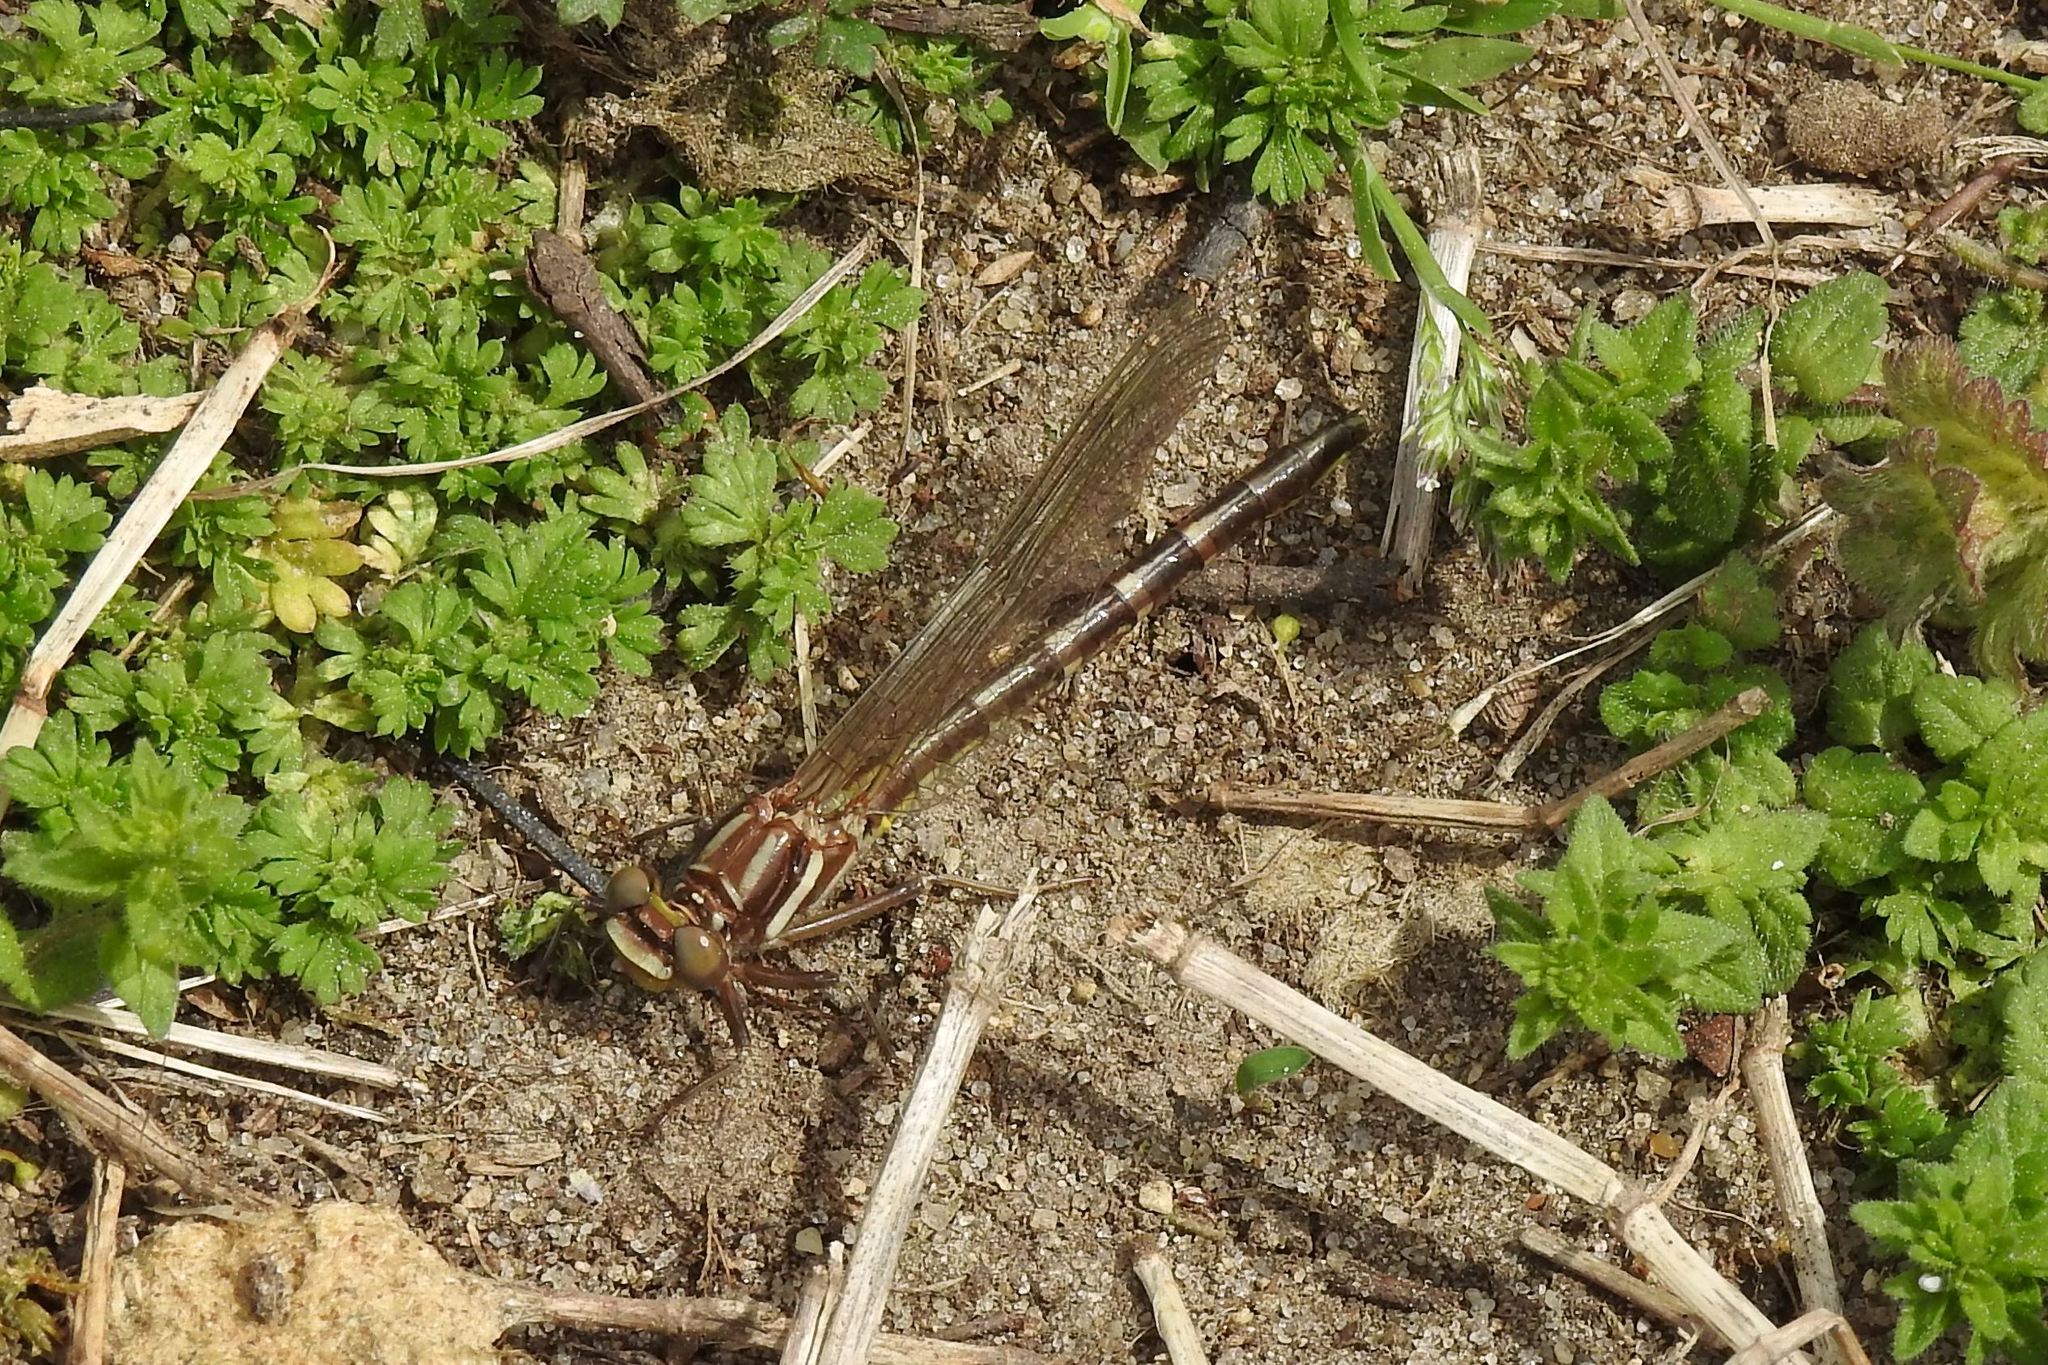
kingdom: Animalia
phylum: Arthropoda
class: Insecta
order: Odonata
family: Gomphidae
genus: Phanogomphus
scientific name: Phanogomphus lividus
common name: Ashy clubtail
